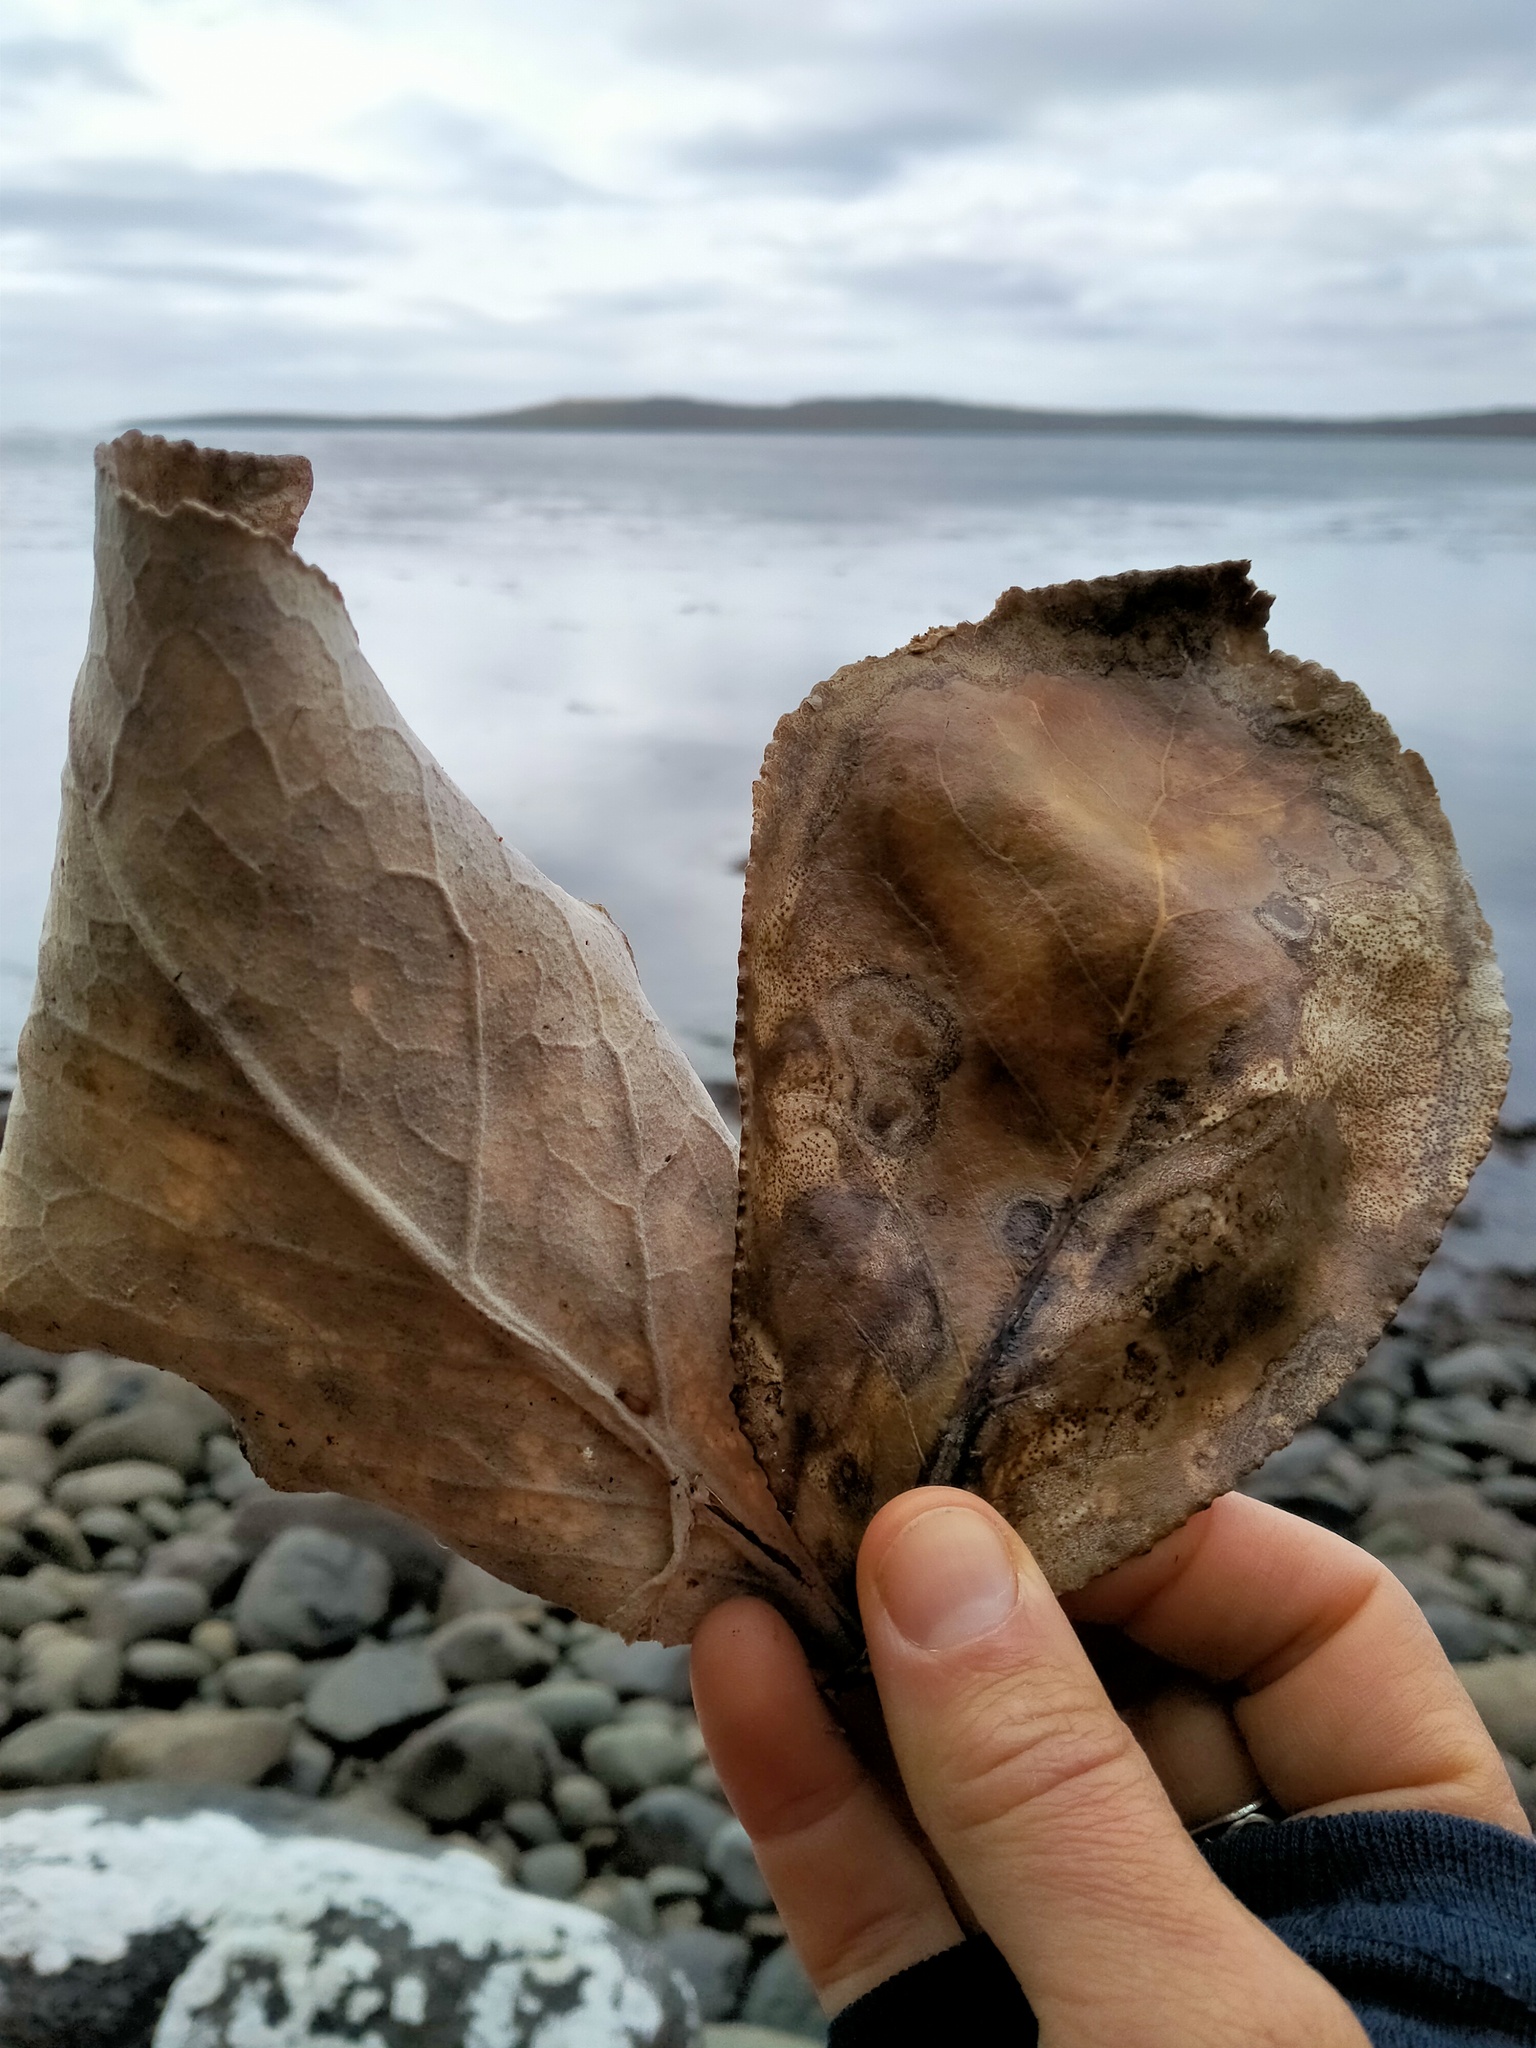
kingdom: Plantae
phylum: Tracheophyta
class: Magnoliopsida
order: Asterales
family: Asteraceae
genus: Macrolearia
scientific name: Macrolearia lyallii
